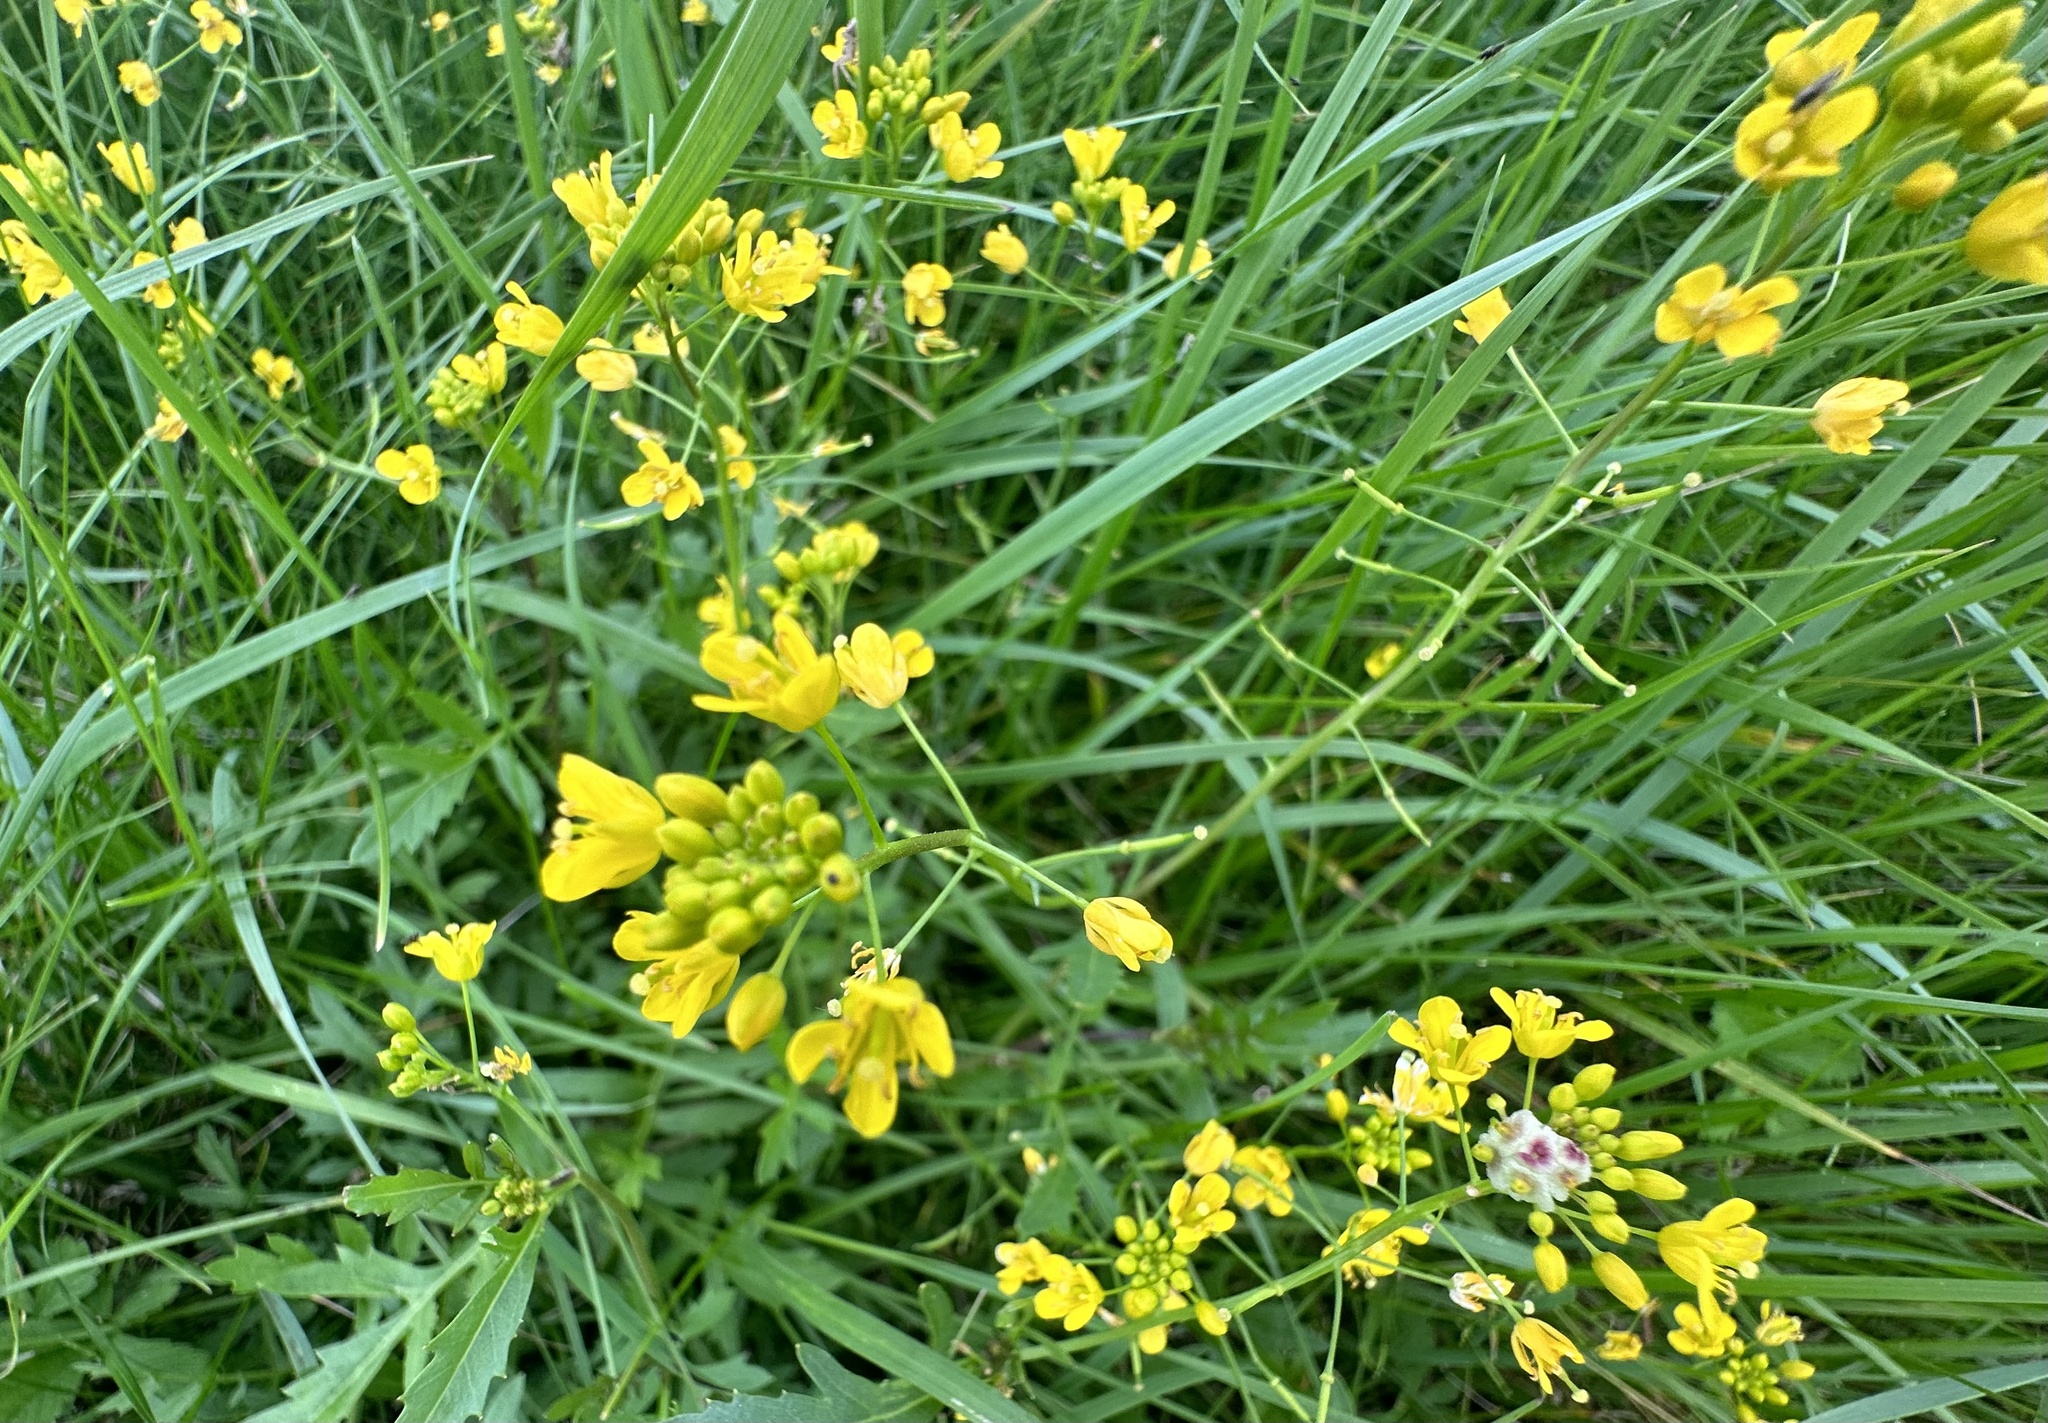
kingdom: Plantae
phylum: Tracheophyta
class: Magnoliopsida
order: Brassicales
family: Brassicaceae
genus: Rorippa
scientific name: Rorippa sylvestris
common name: Creeping yellowcress
